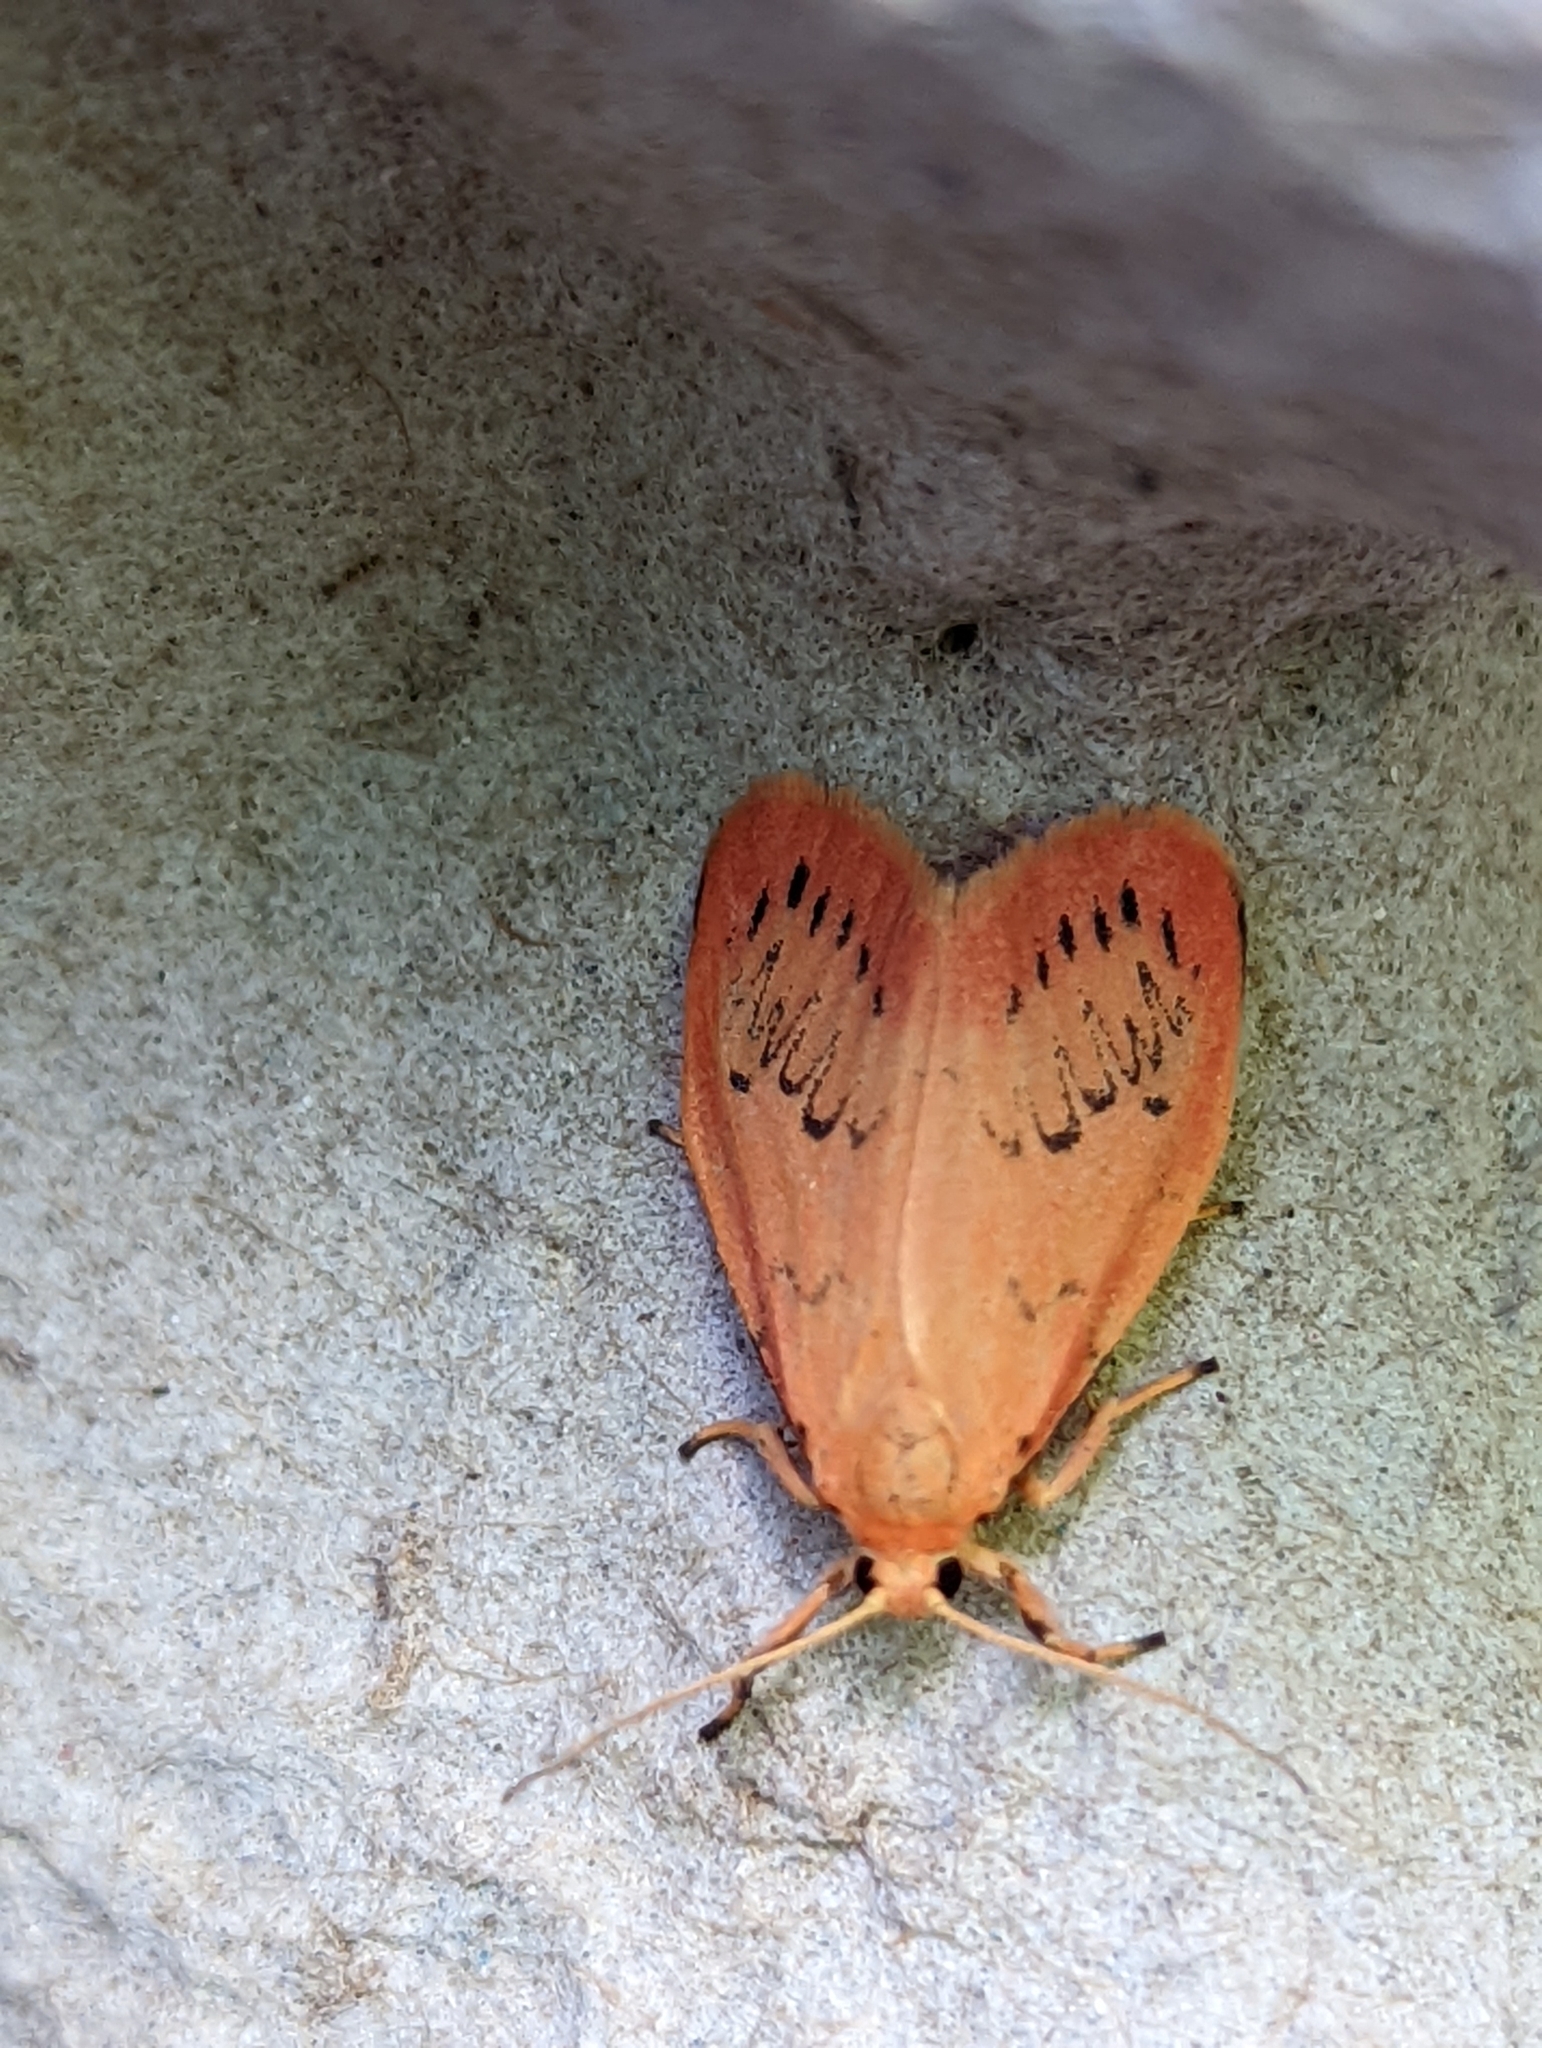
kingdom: Animalia
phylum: Arthropoda
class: Insecta
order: Lepidoptera
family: Erebidae
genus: Miltochrista
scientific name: Miltochrista miniata
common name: Rosy footman
